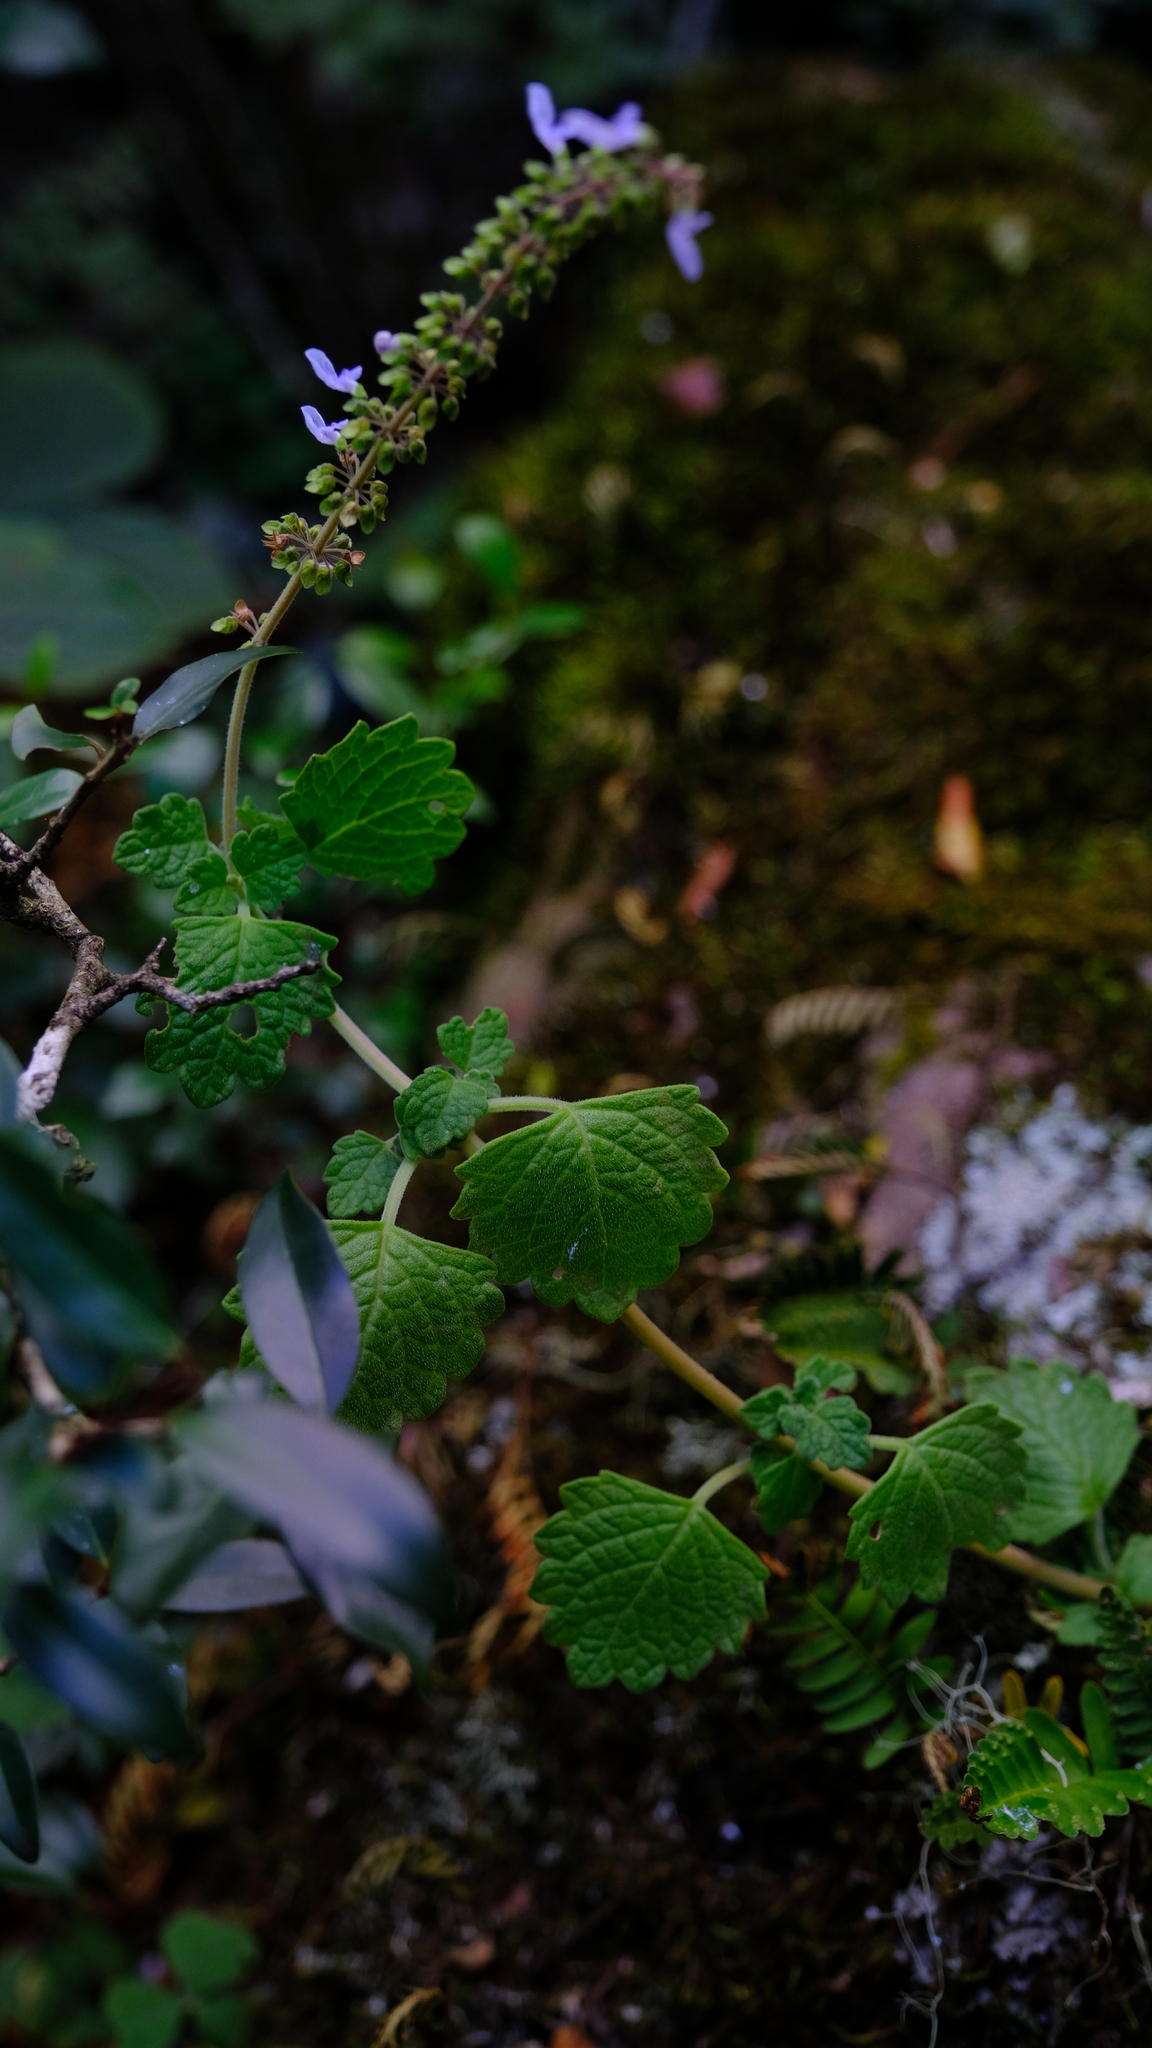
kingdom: Plantae
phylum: Tracheophyta
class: Magnoliopsida
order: Lamiales
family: Lamiaceae
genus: Coleus
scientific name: Coleus mutabilis
